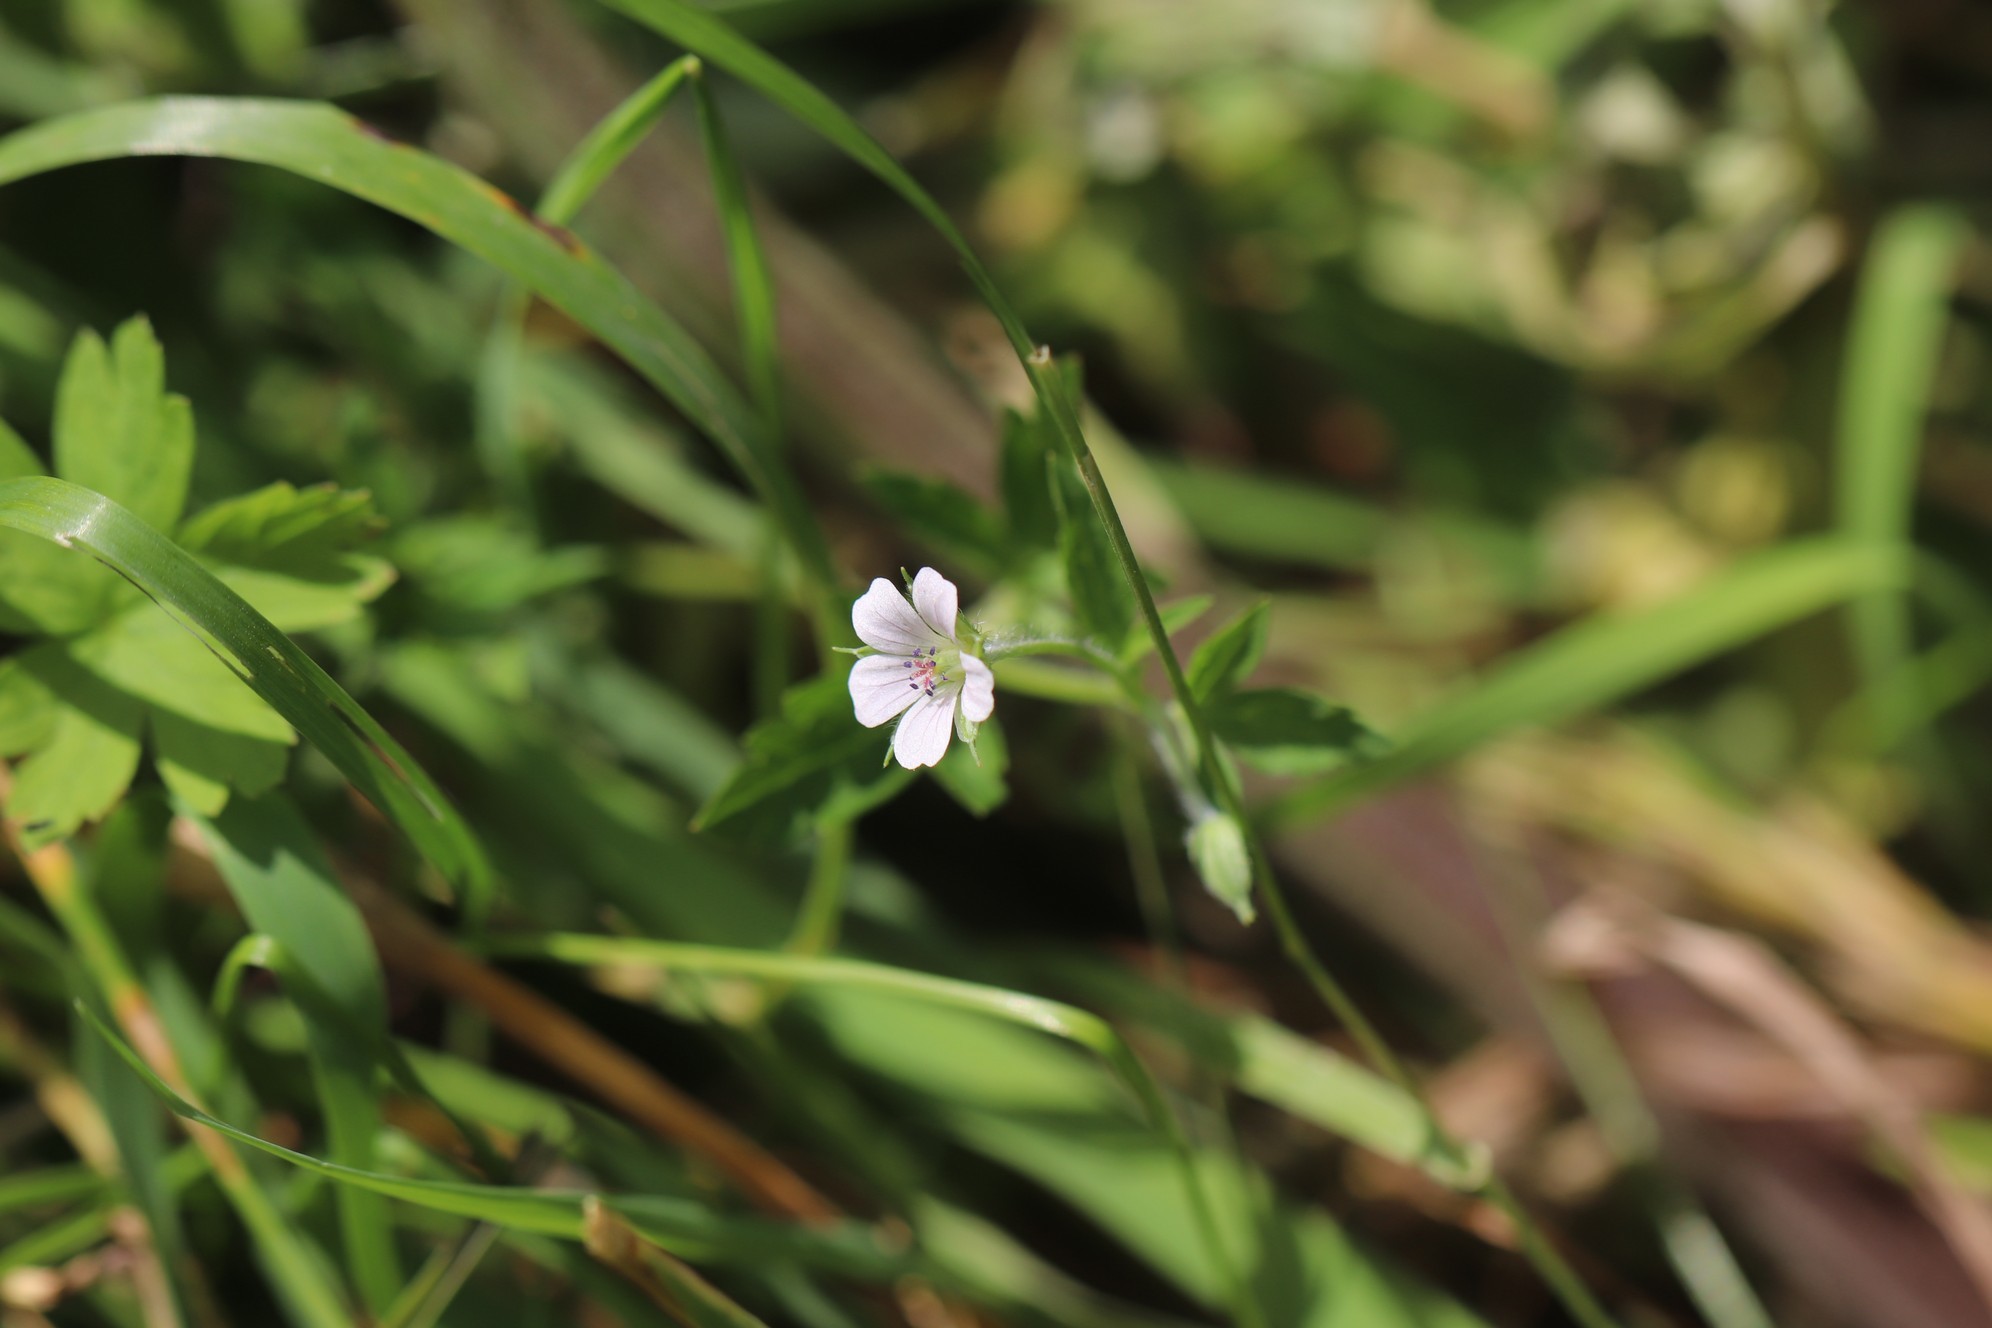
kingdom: Plantae
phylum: Tracheophyta
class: Magnoliopsida
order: Geraniales
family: Geraniaceae
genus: Geranium
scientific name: Geranium sibiricum
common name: Siberian crane's-bill
